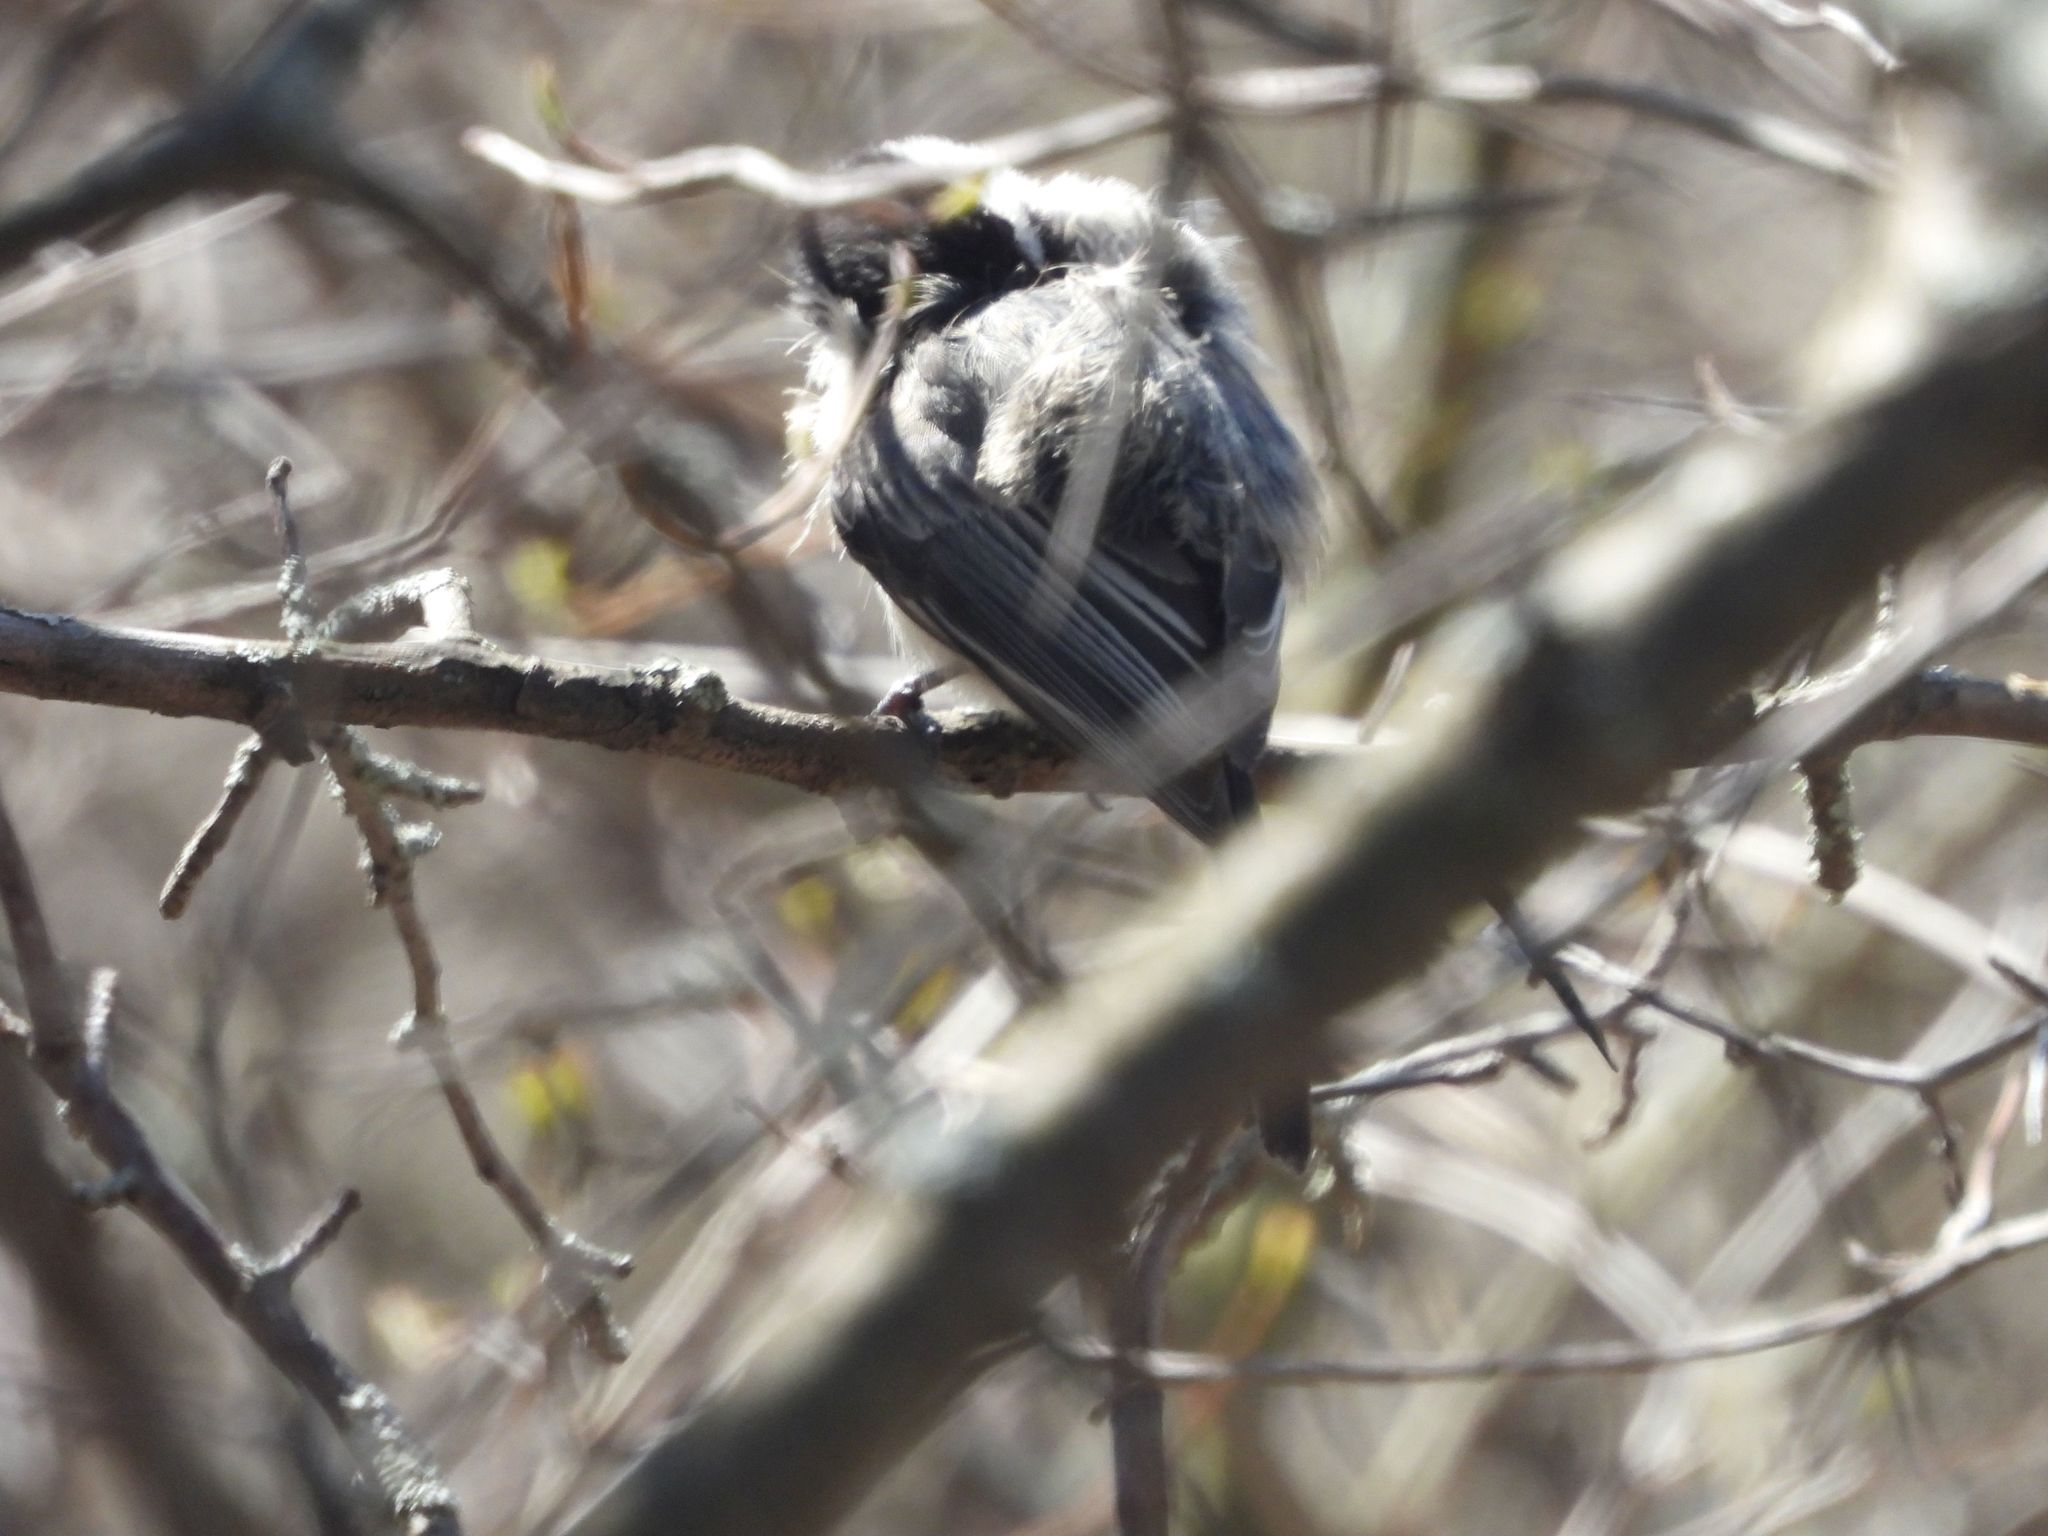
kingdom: Animalia
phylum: Chordata
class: Aves
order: Passeriformes
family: Paridae
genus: Poecile
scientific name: Poecile atricapillus
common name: Black-capped chickadee
